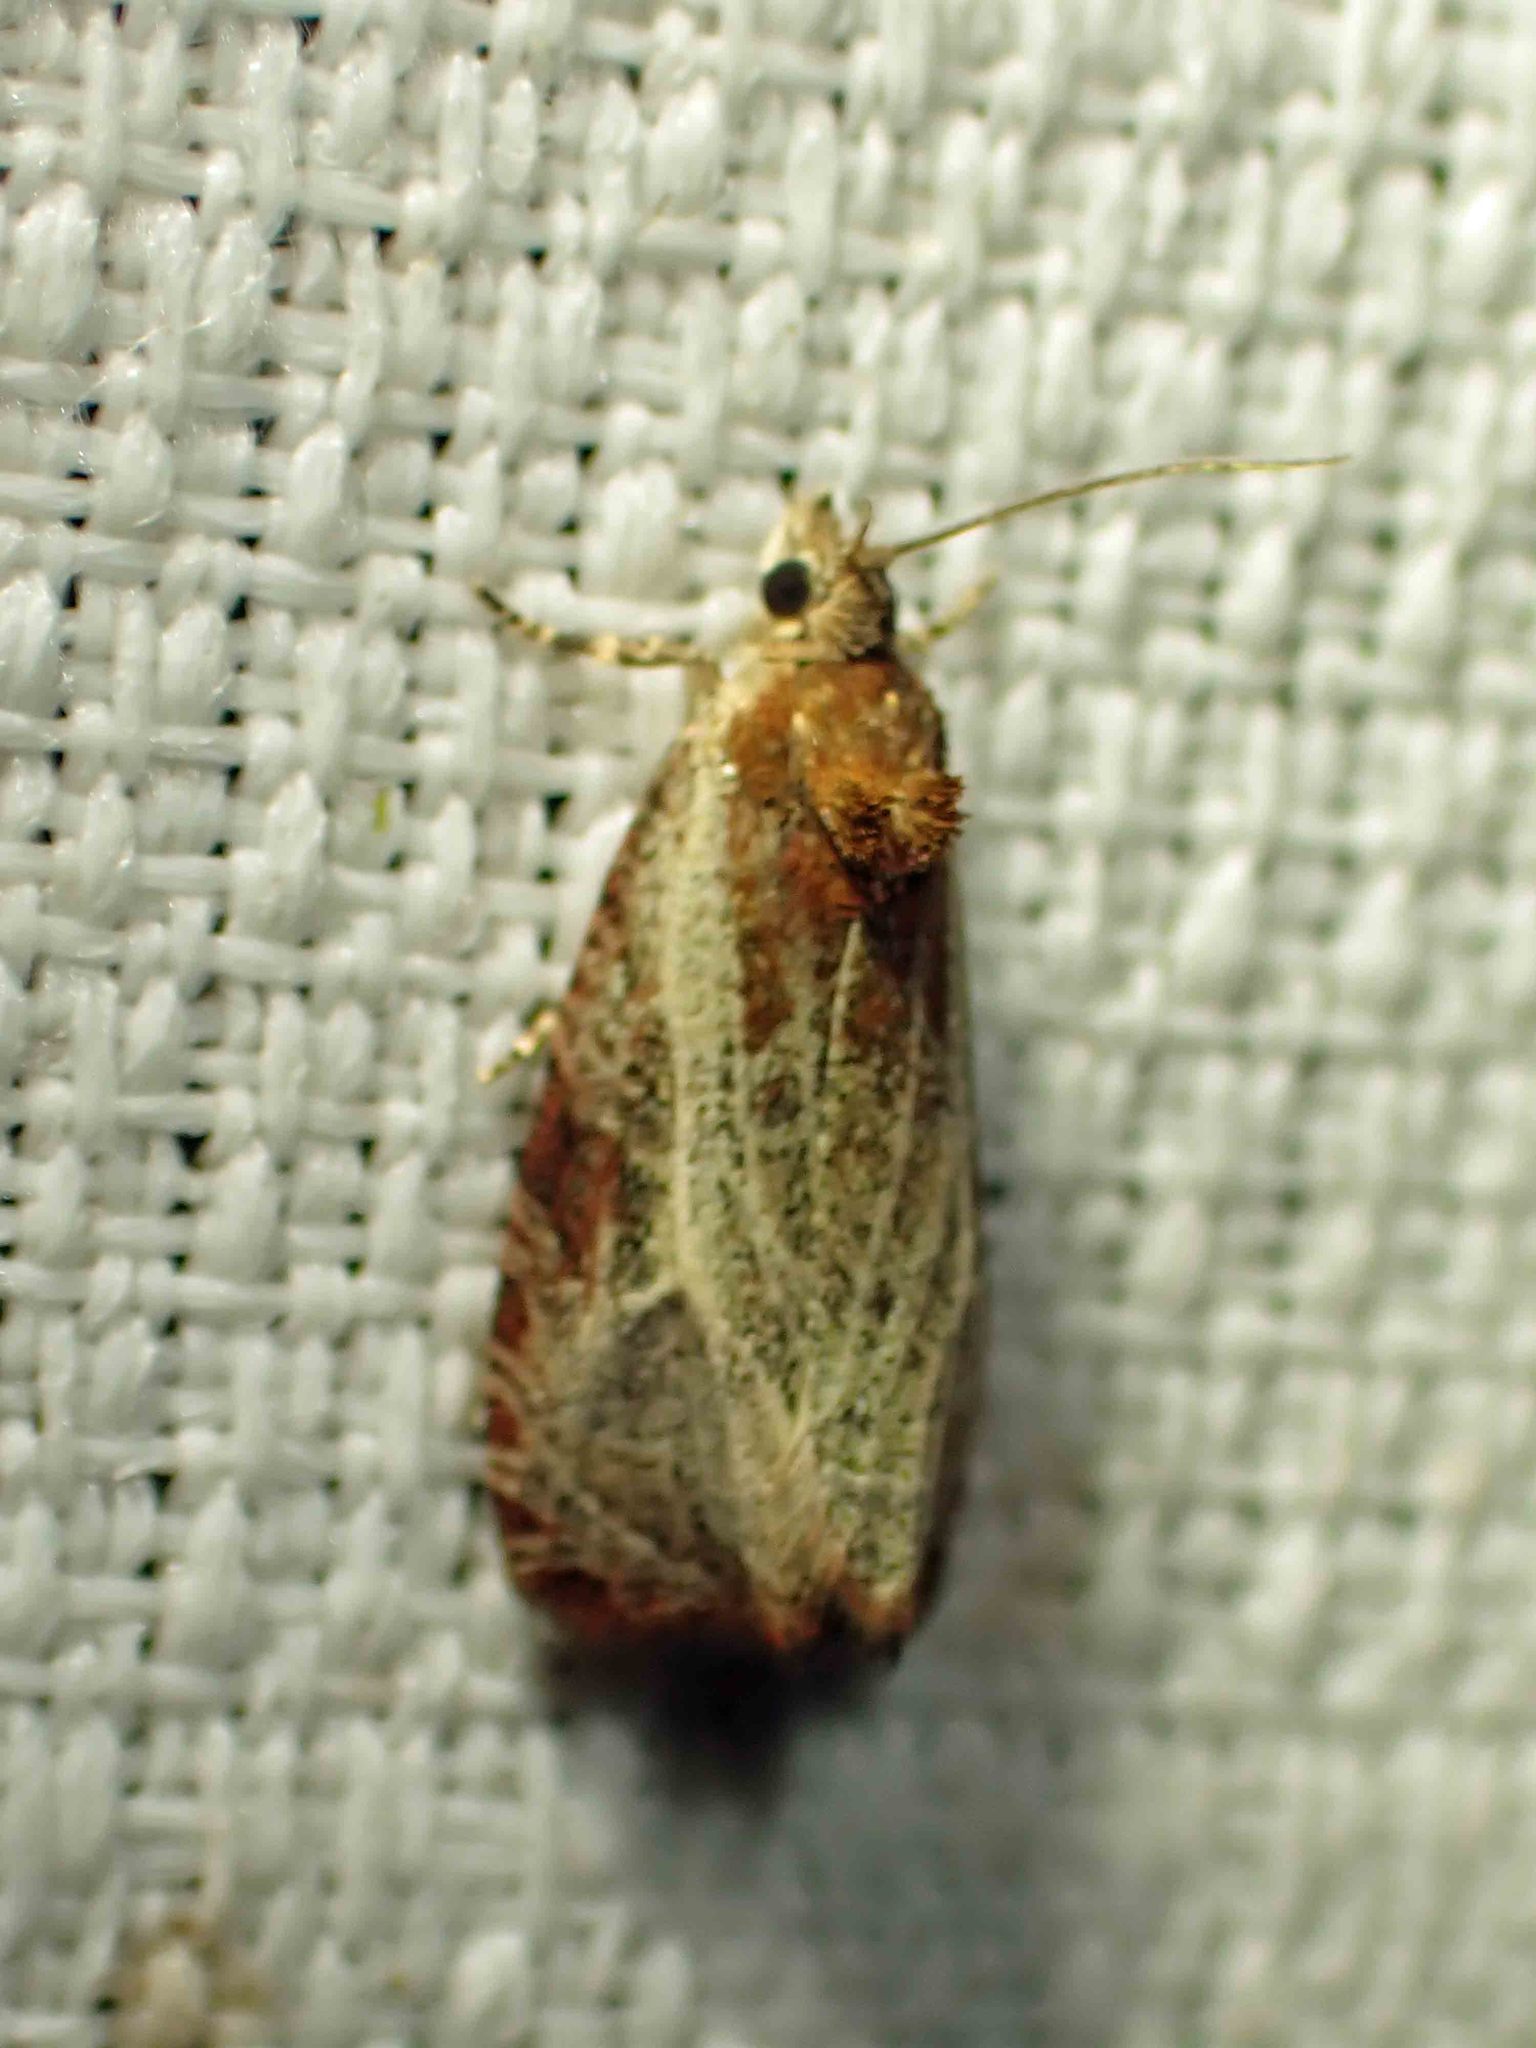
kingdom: Animalia
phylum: Arthropoda
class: Insecta
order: Lepidoptera
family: Tortricidae
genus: Olethreutes
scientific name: Olethreutes quadrifidum
